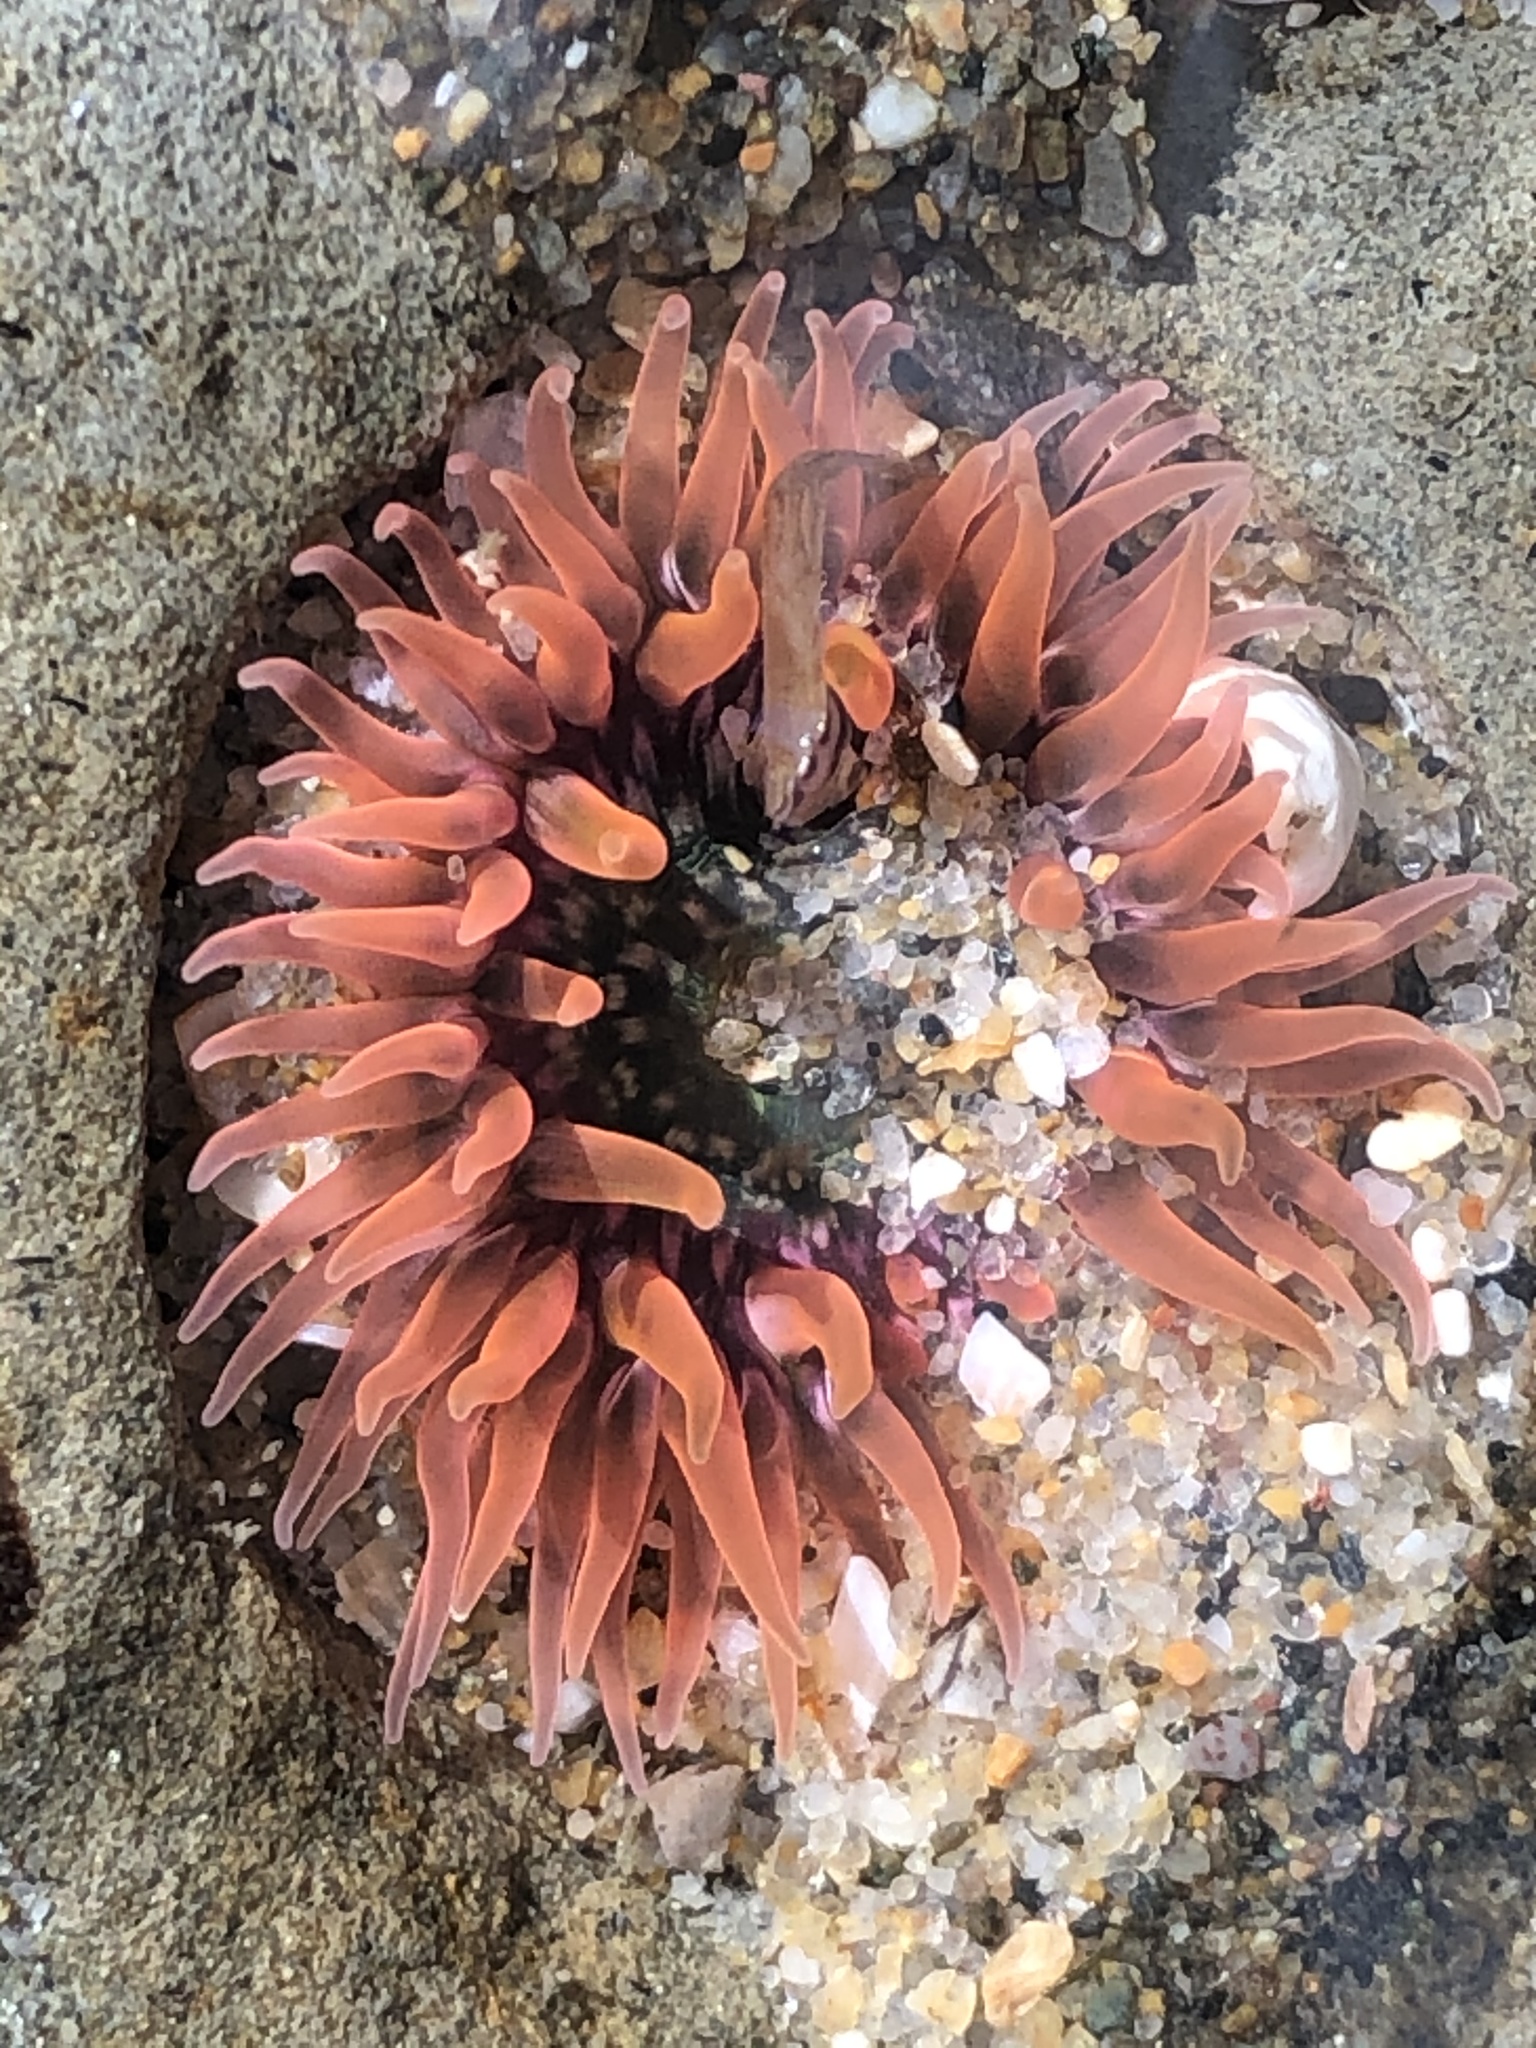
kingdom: Animalia
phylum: Cnidaria
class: Anthozoa
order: Actiniaria
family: Actiniidae
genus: Anthopleura
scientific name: Anthopleura artemisia
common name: Buried sea anemone
